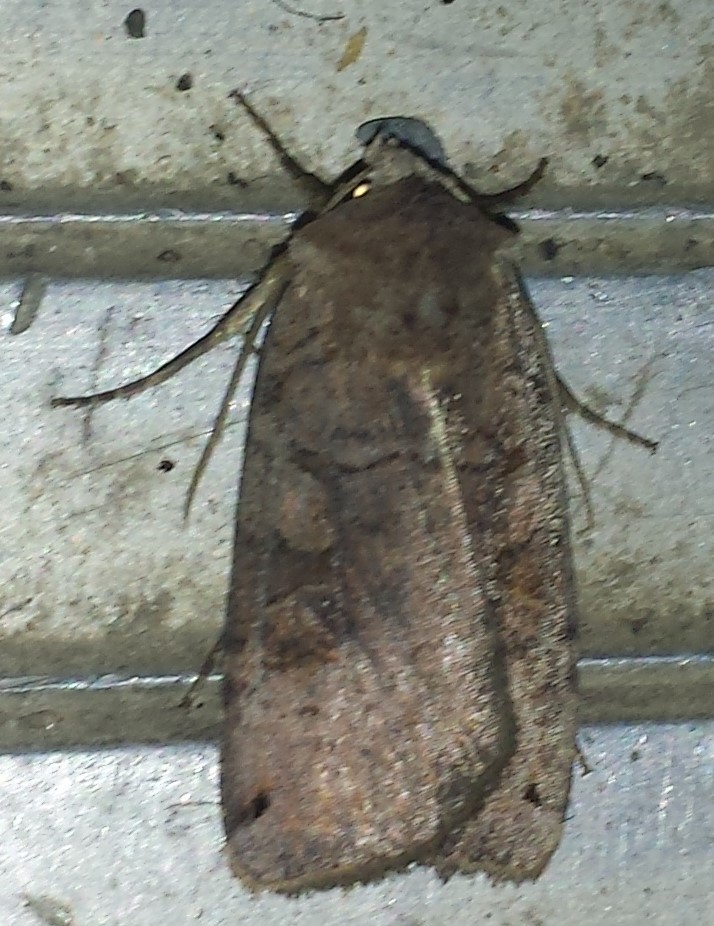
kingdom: Animalia
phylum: Arthropoda
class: Insecta
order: Lepidoptera
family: Noctuidae
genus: Noctua
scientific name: Noctua pronuba
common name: Large yellow underwing
